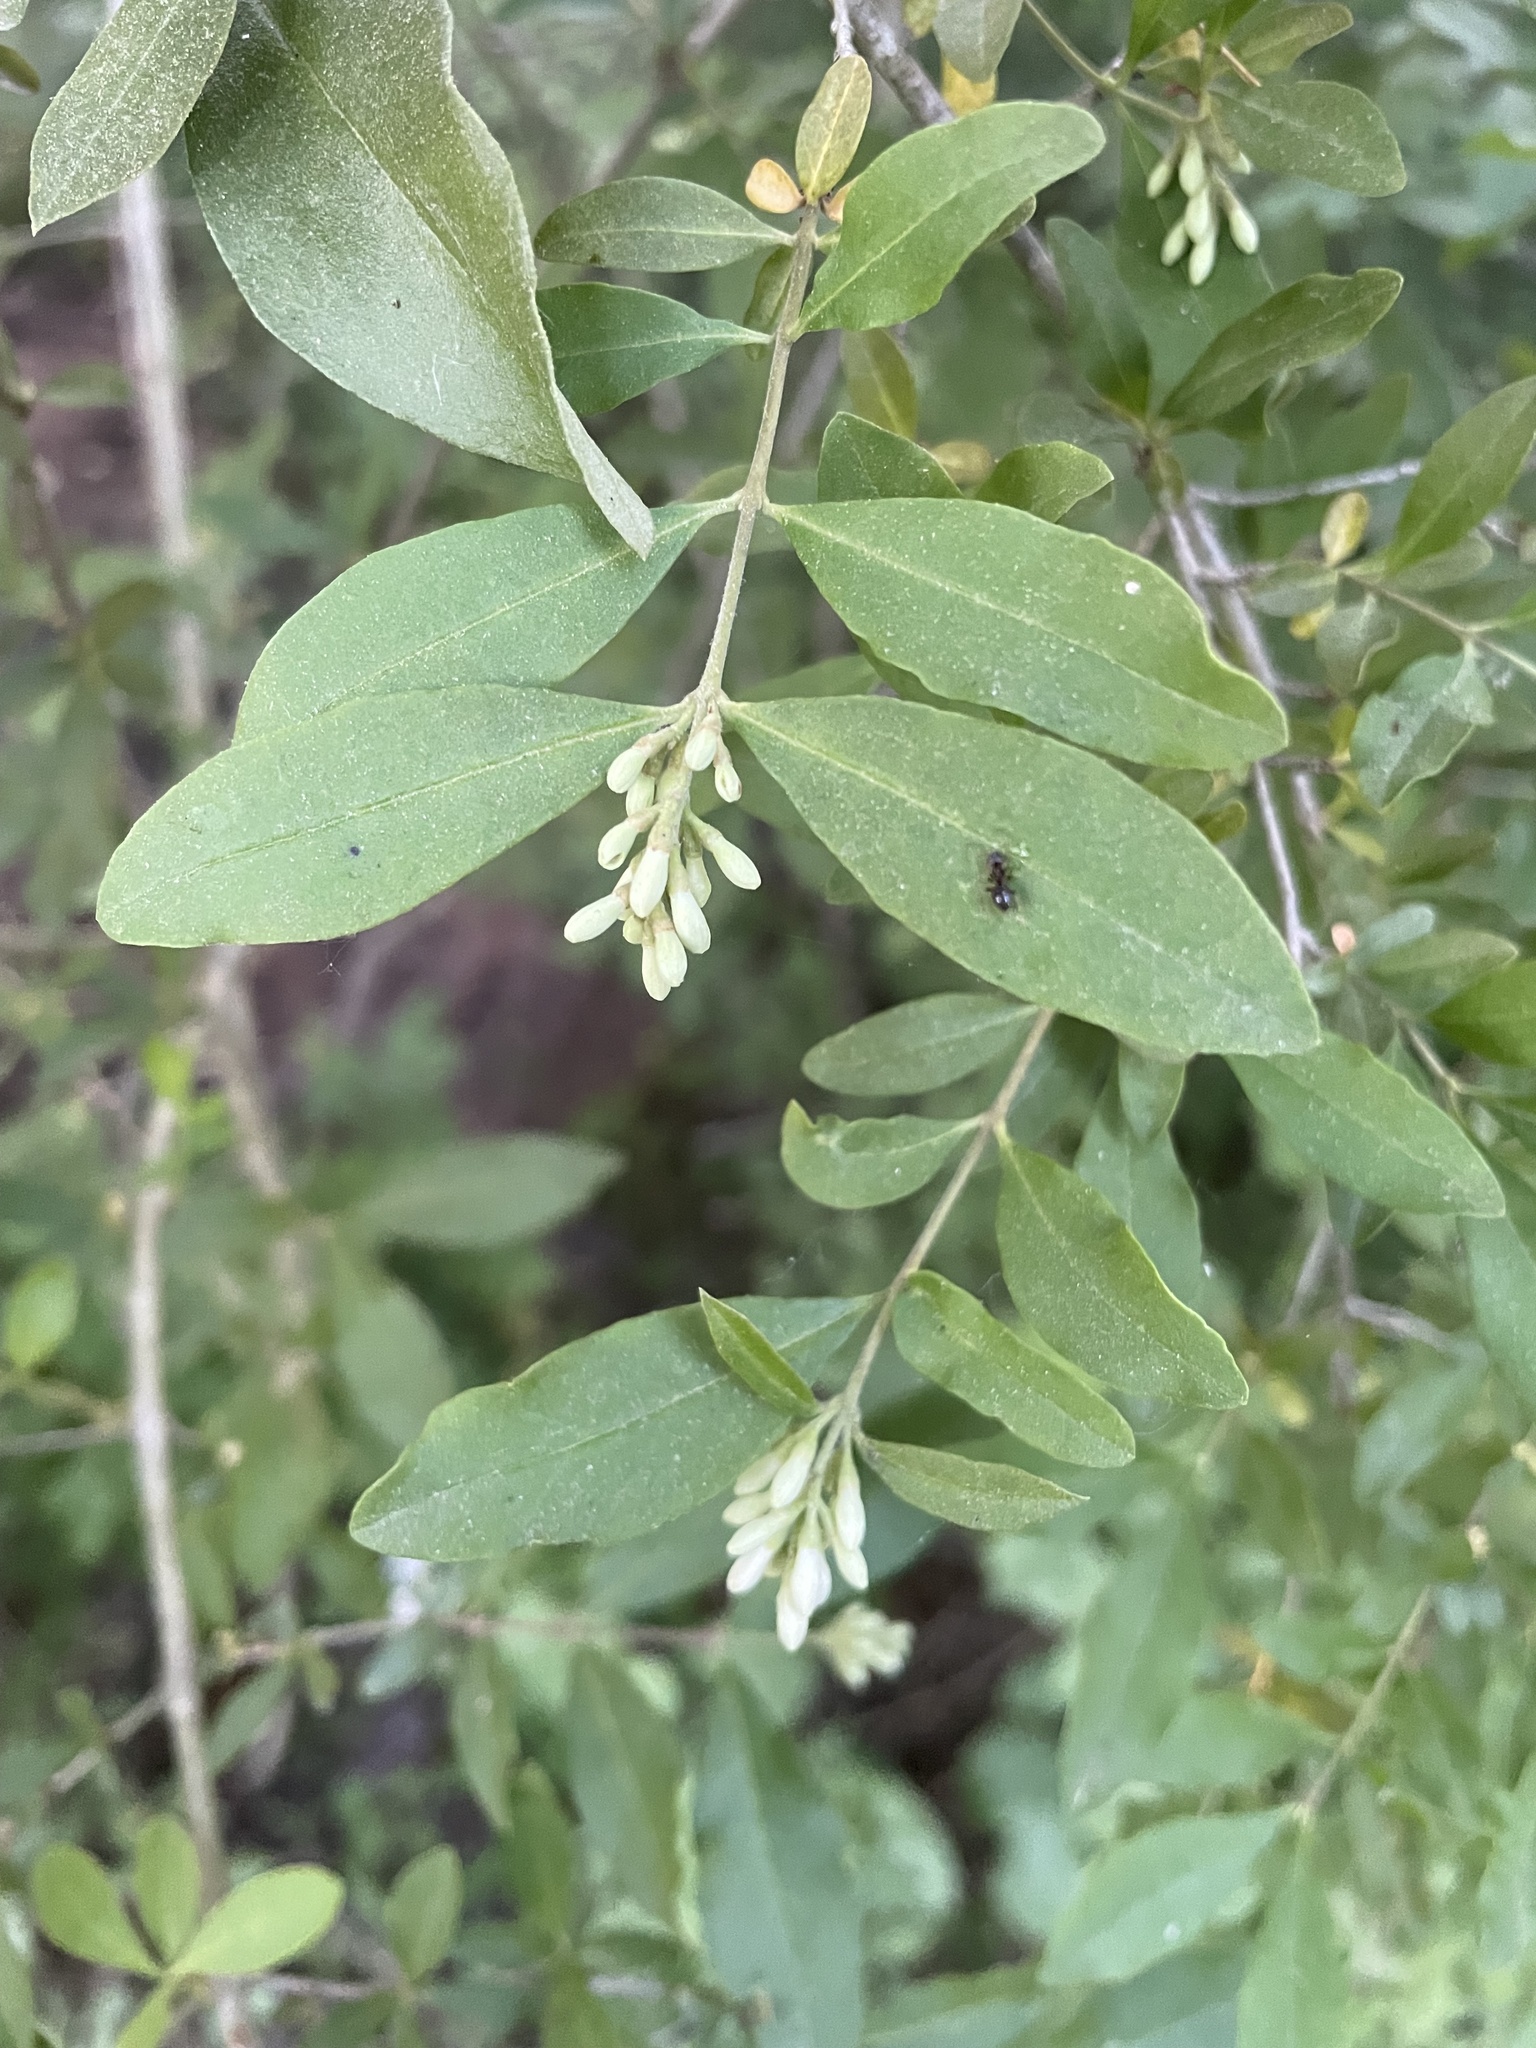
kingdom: Plantae
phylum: Tracheophyta
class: Magnoliopsida
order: Lamiales
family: Oleaceae
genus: Ligustrum
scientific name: Ligustrum obtusifolium
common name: Border privet
